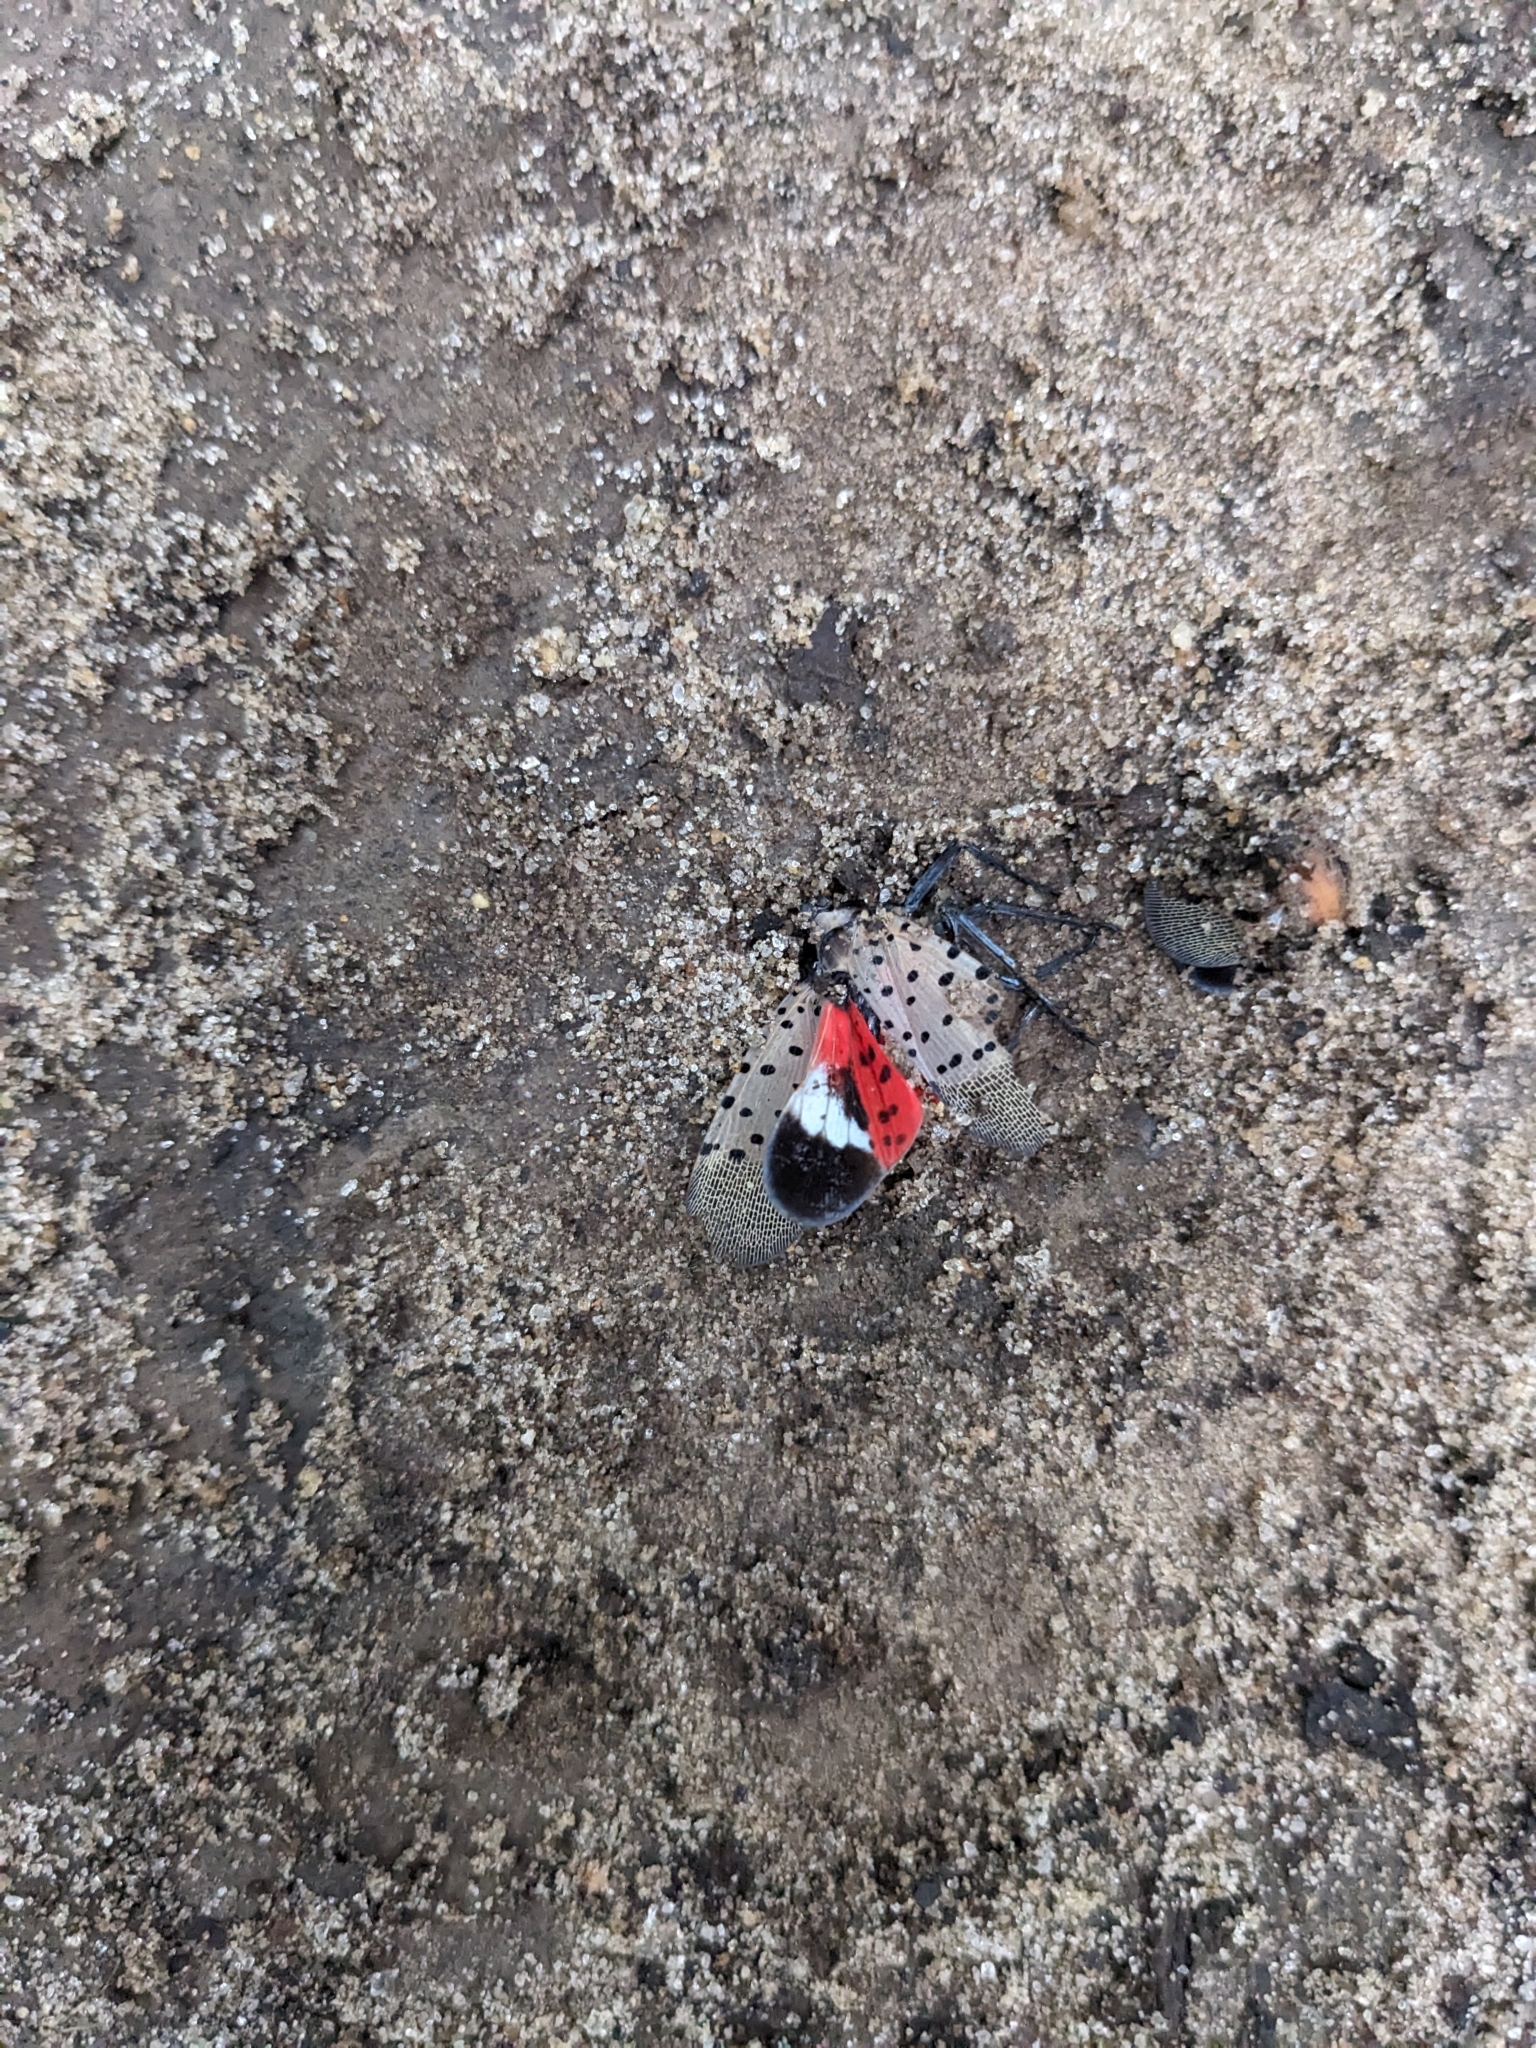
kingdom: Animalia
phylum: Arthropoda
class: Insecta
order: Hemiptera
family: Fulgoridae
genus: Lycorma
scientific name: Lycorma delicatula
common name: Spotted lanternfly
